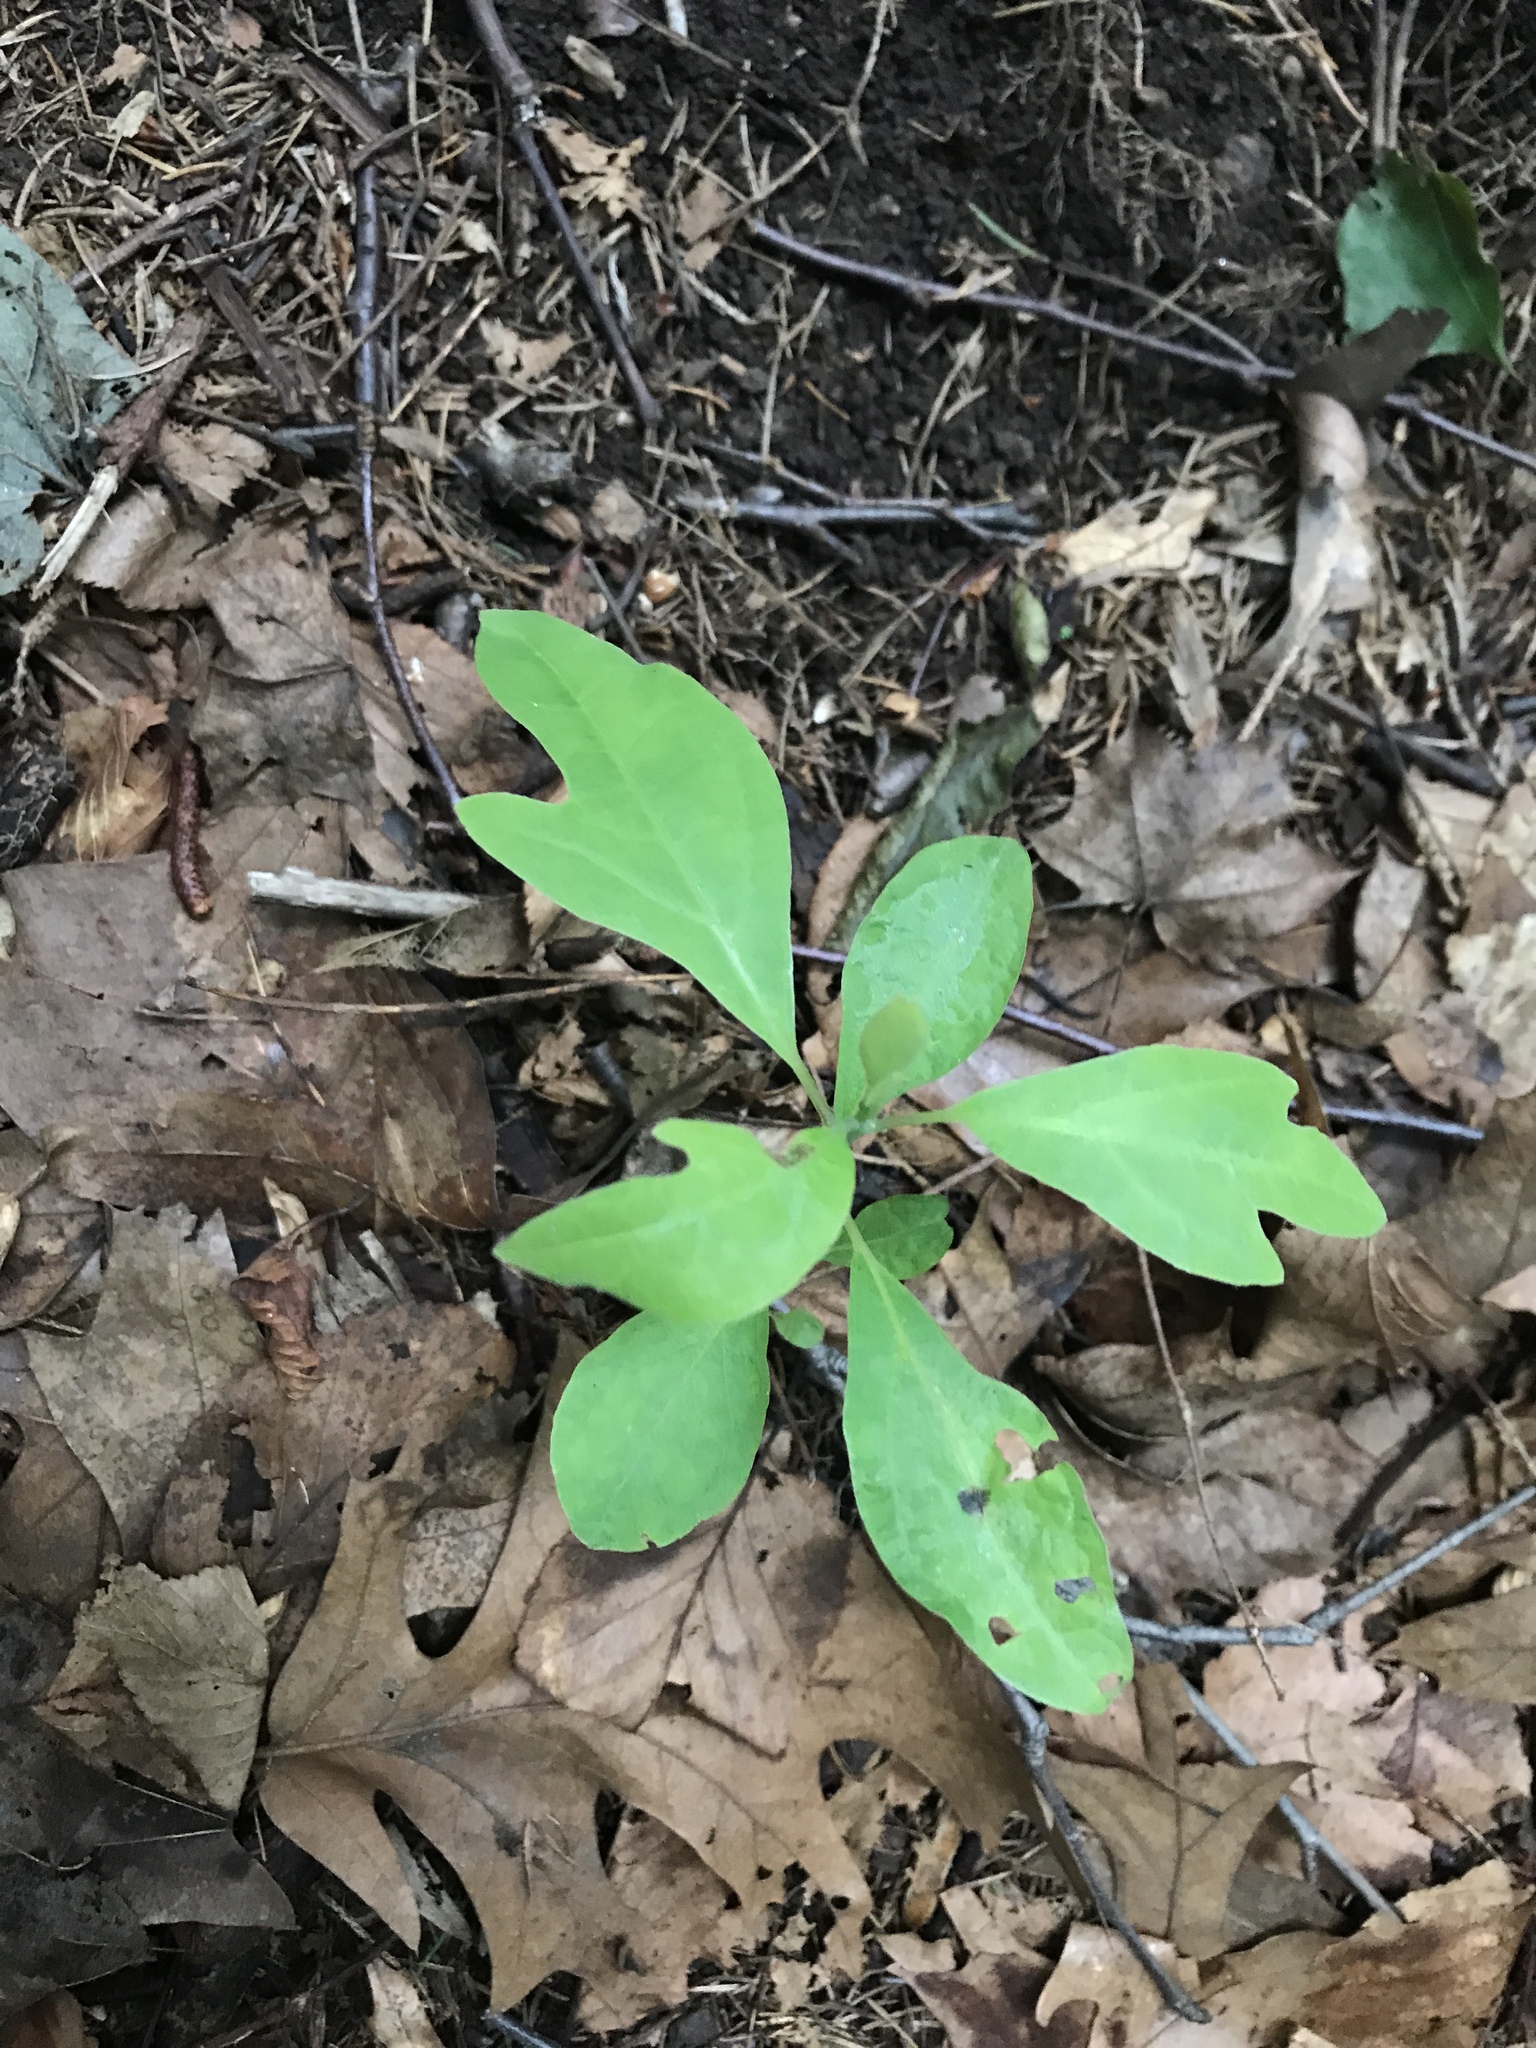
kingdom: Plantae
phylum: Tracheophyta
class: Magnoliopsida
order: Laurales
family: Lauraceae
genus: Sassafras
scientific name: Sassafras albidum
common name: Sassafras
